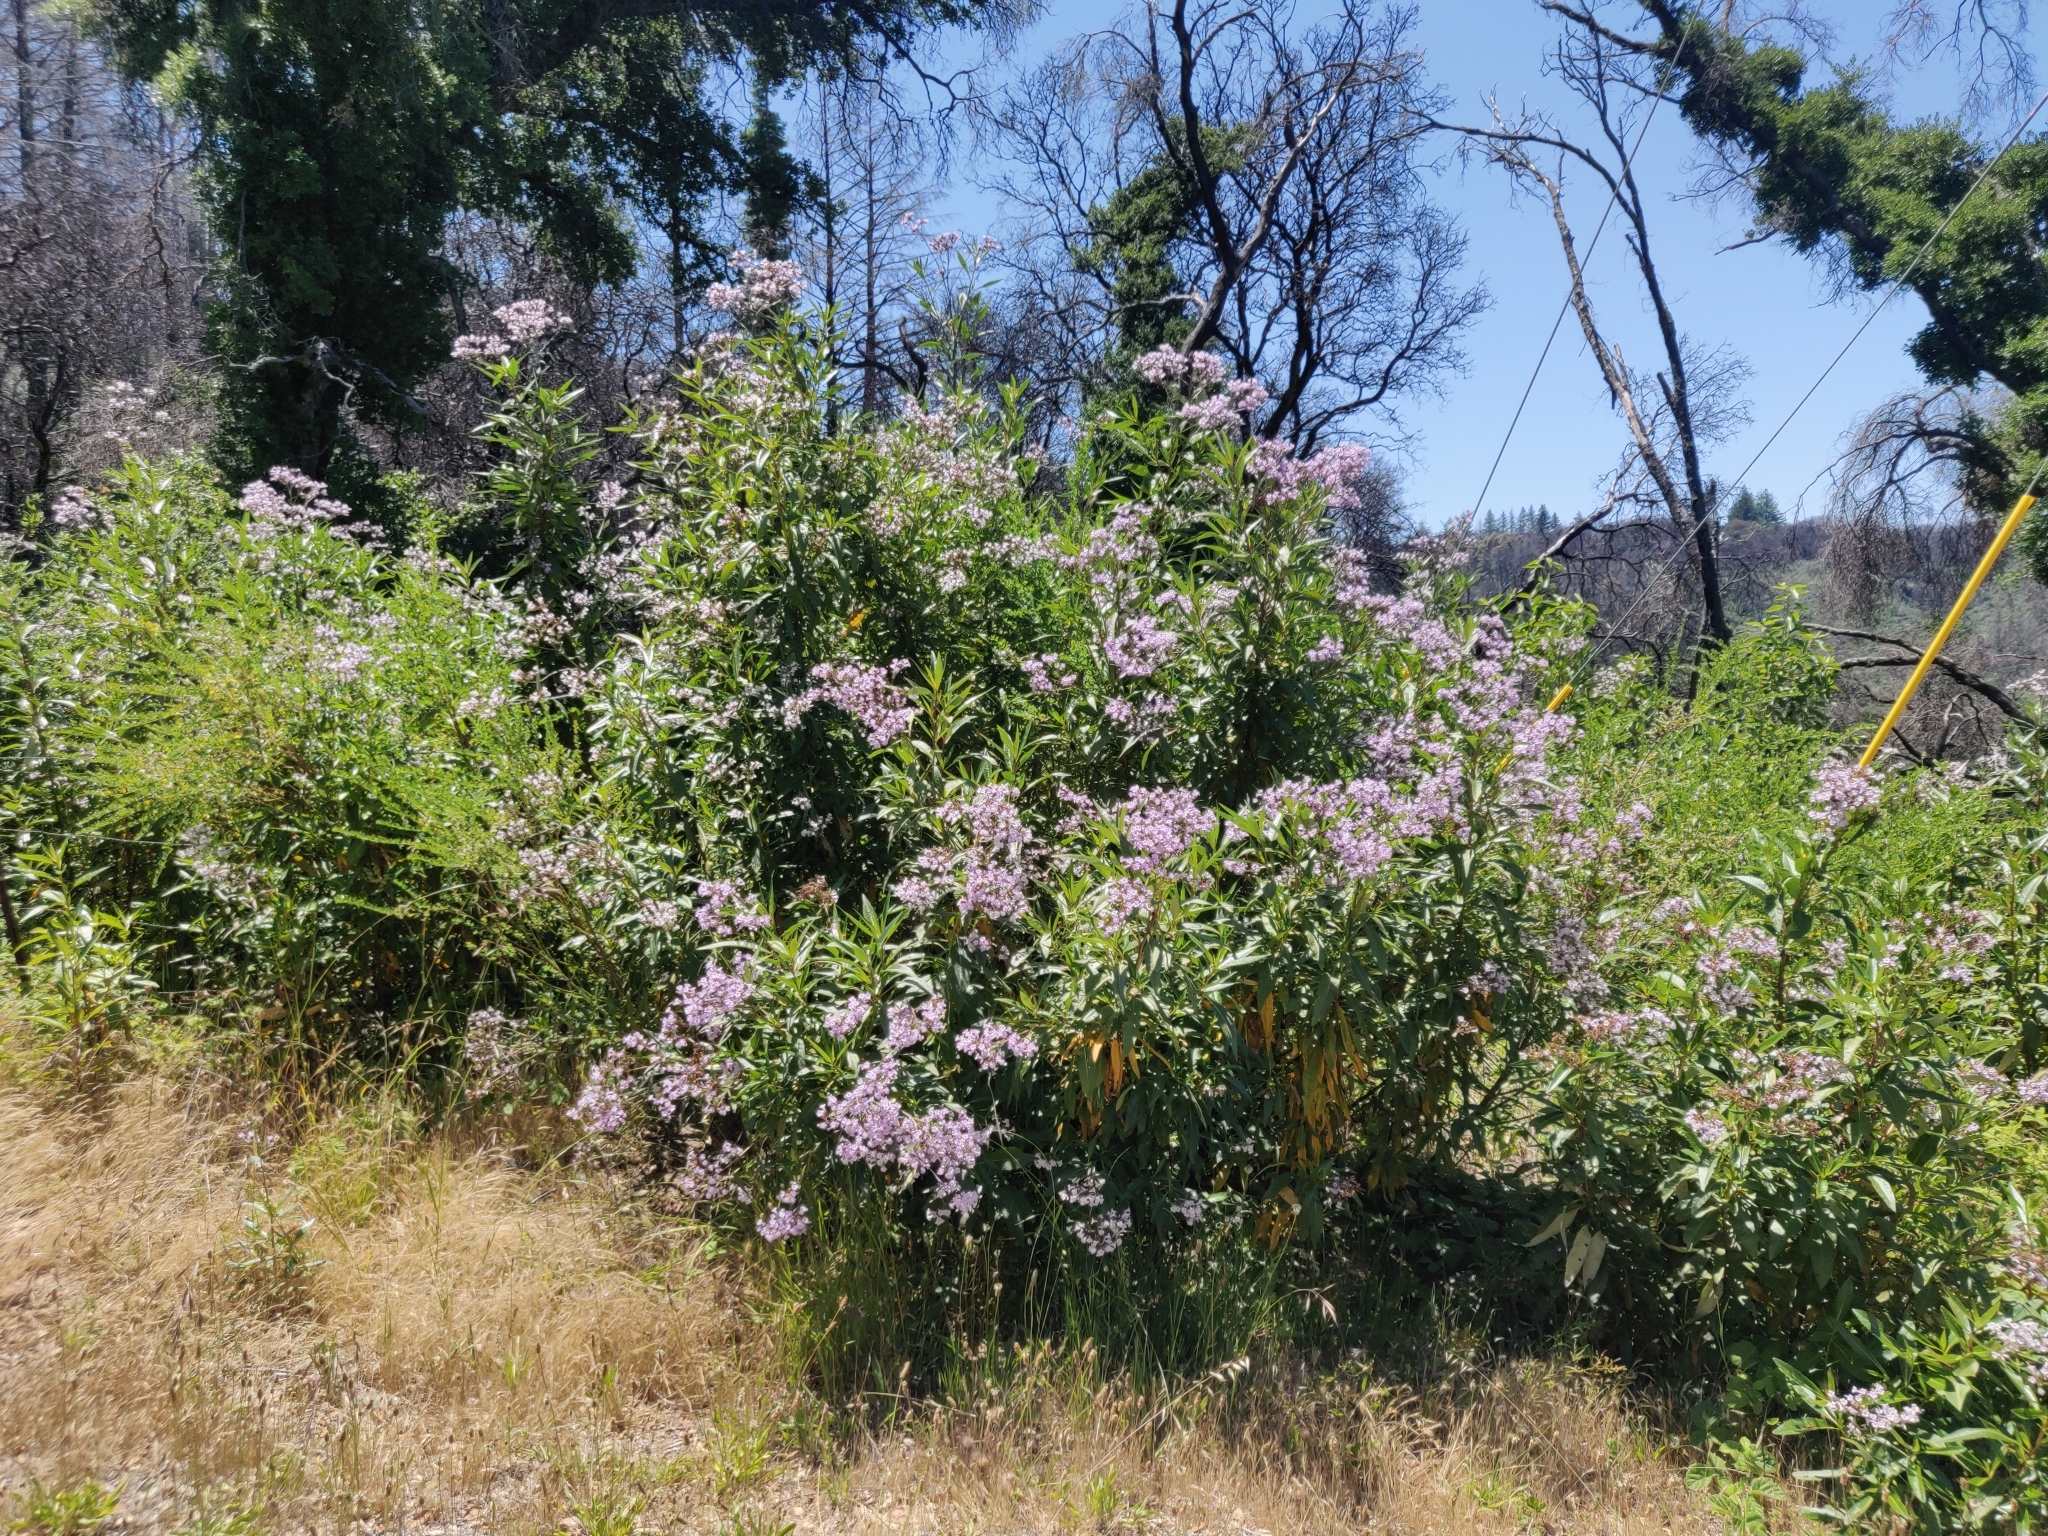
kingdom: Plantae
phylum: Tracheophyta
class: Magnoliopsida
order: Boraginales
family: Namaceae
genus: Eriodictyon
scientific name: Eriodictyon californicum
